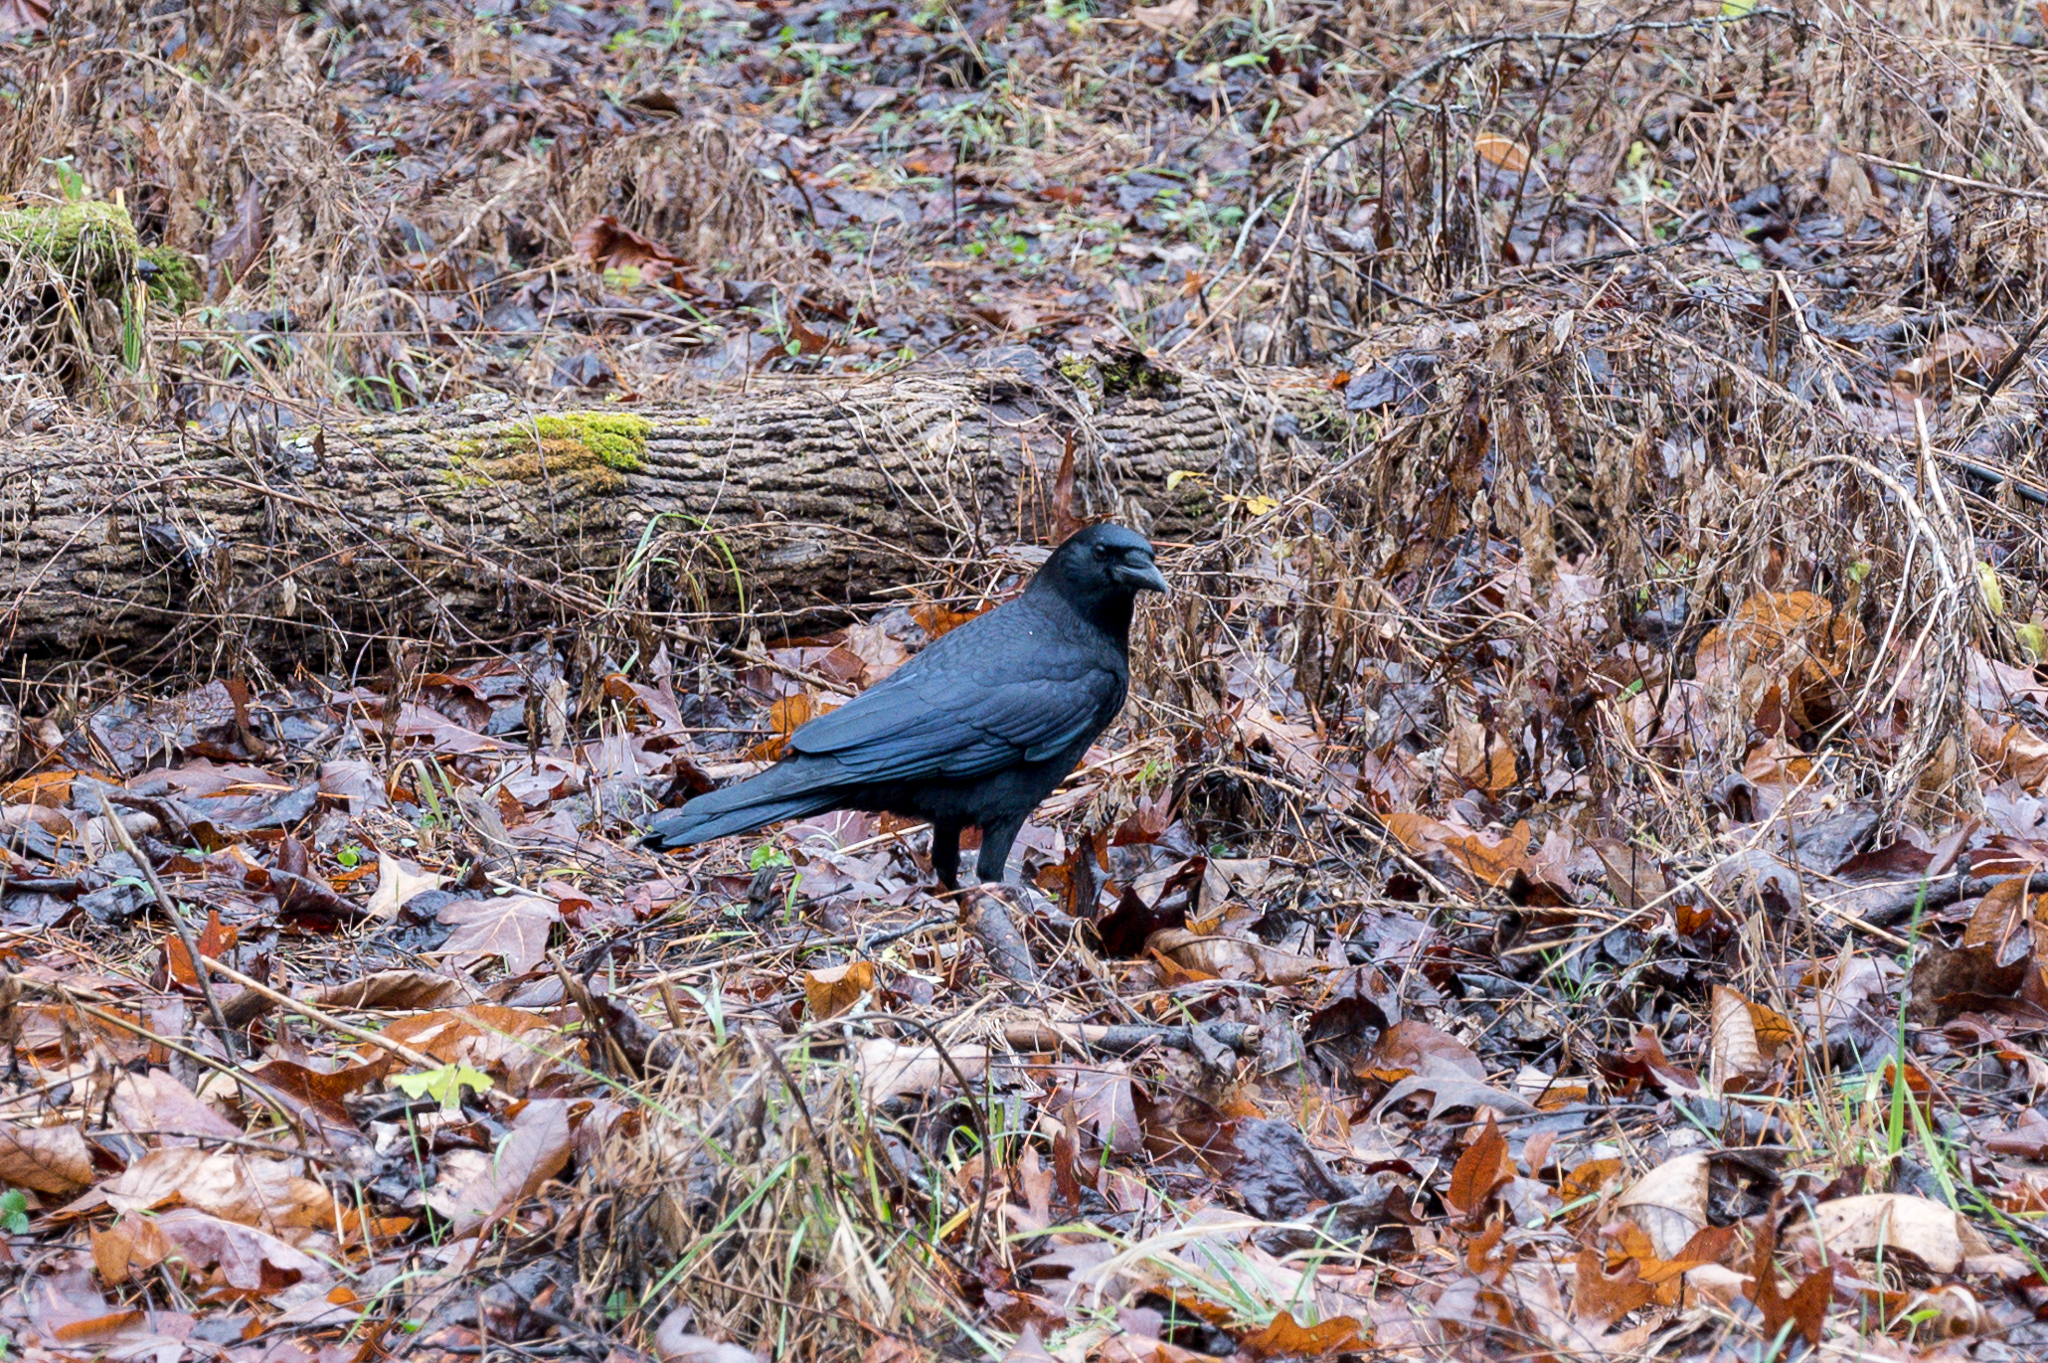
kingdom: Animalia
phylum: Chordata
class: Aves
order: Passeriformes
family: Corvidae
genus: Corvus
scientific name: Corvus brachyrhynchos
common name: American crow
